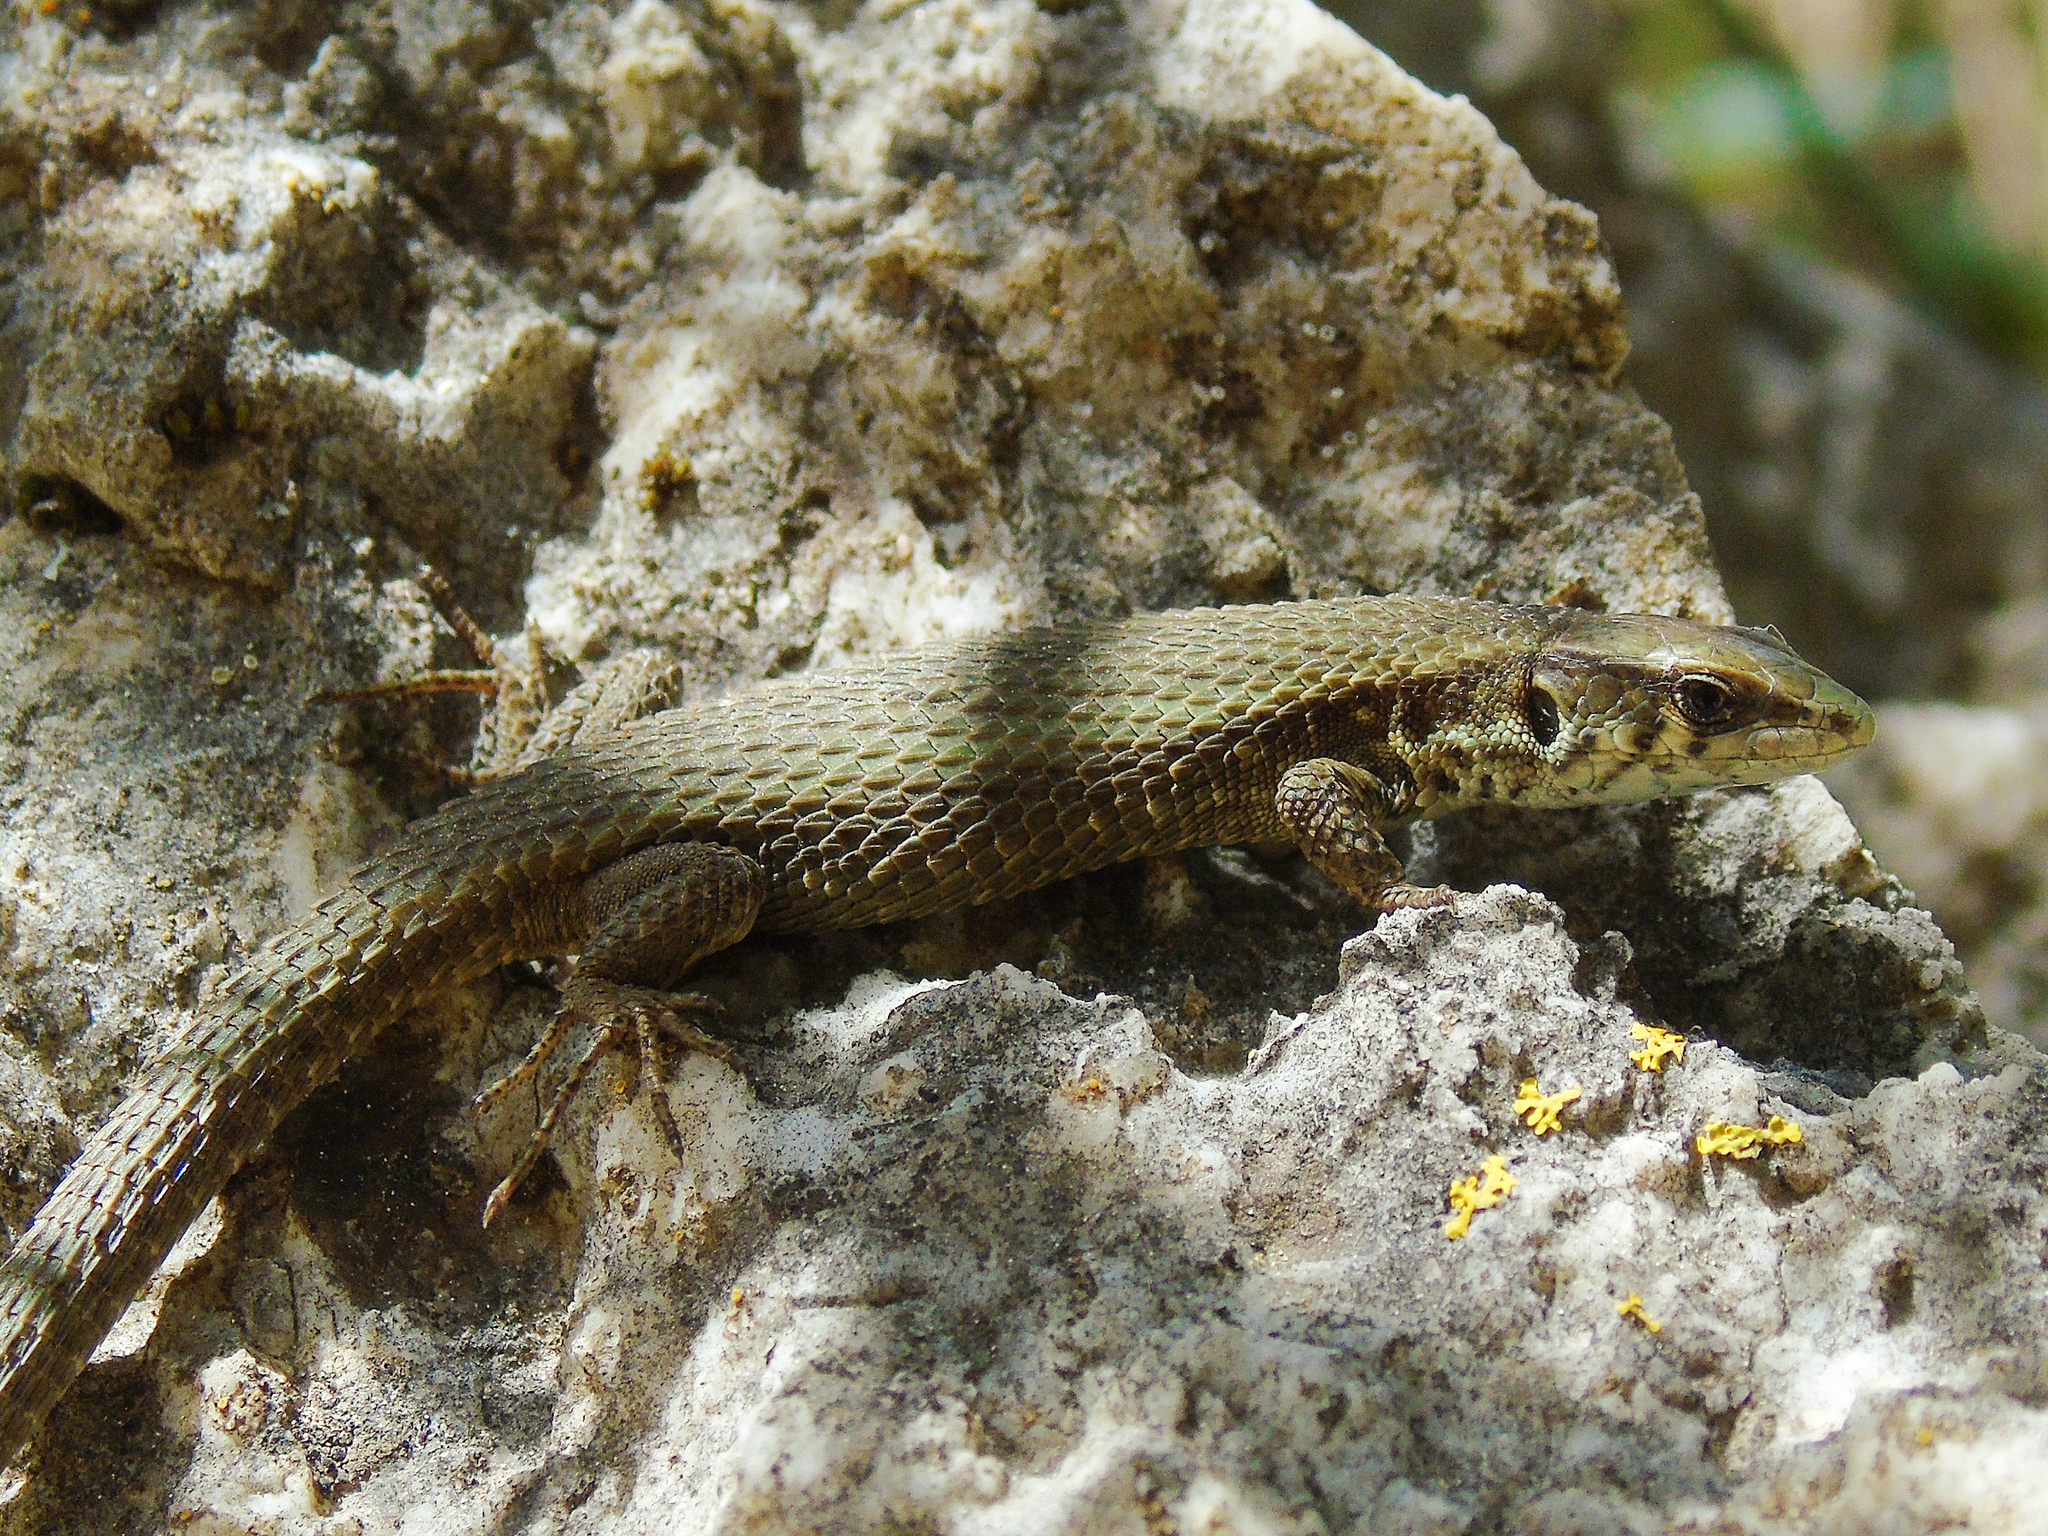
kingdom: Animalia
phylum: Chordata
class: Squamata
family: Lacertidae
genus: Algyroides
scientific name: Algyroides moreoticus
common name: Greek algyroides
